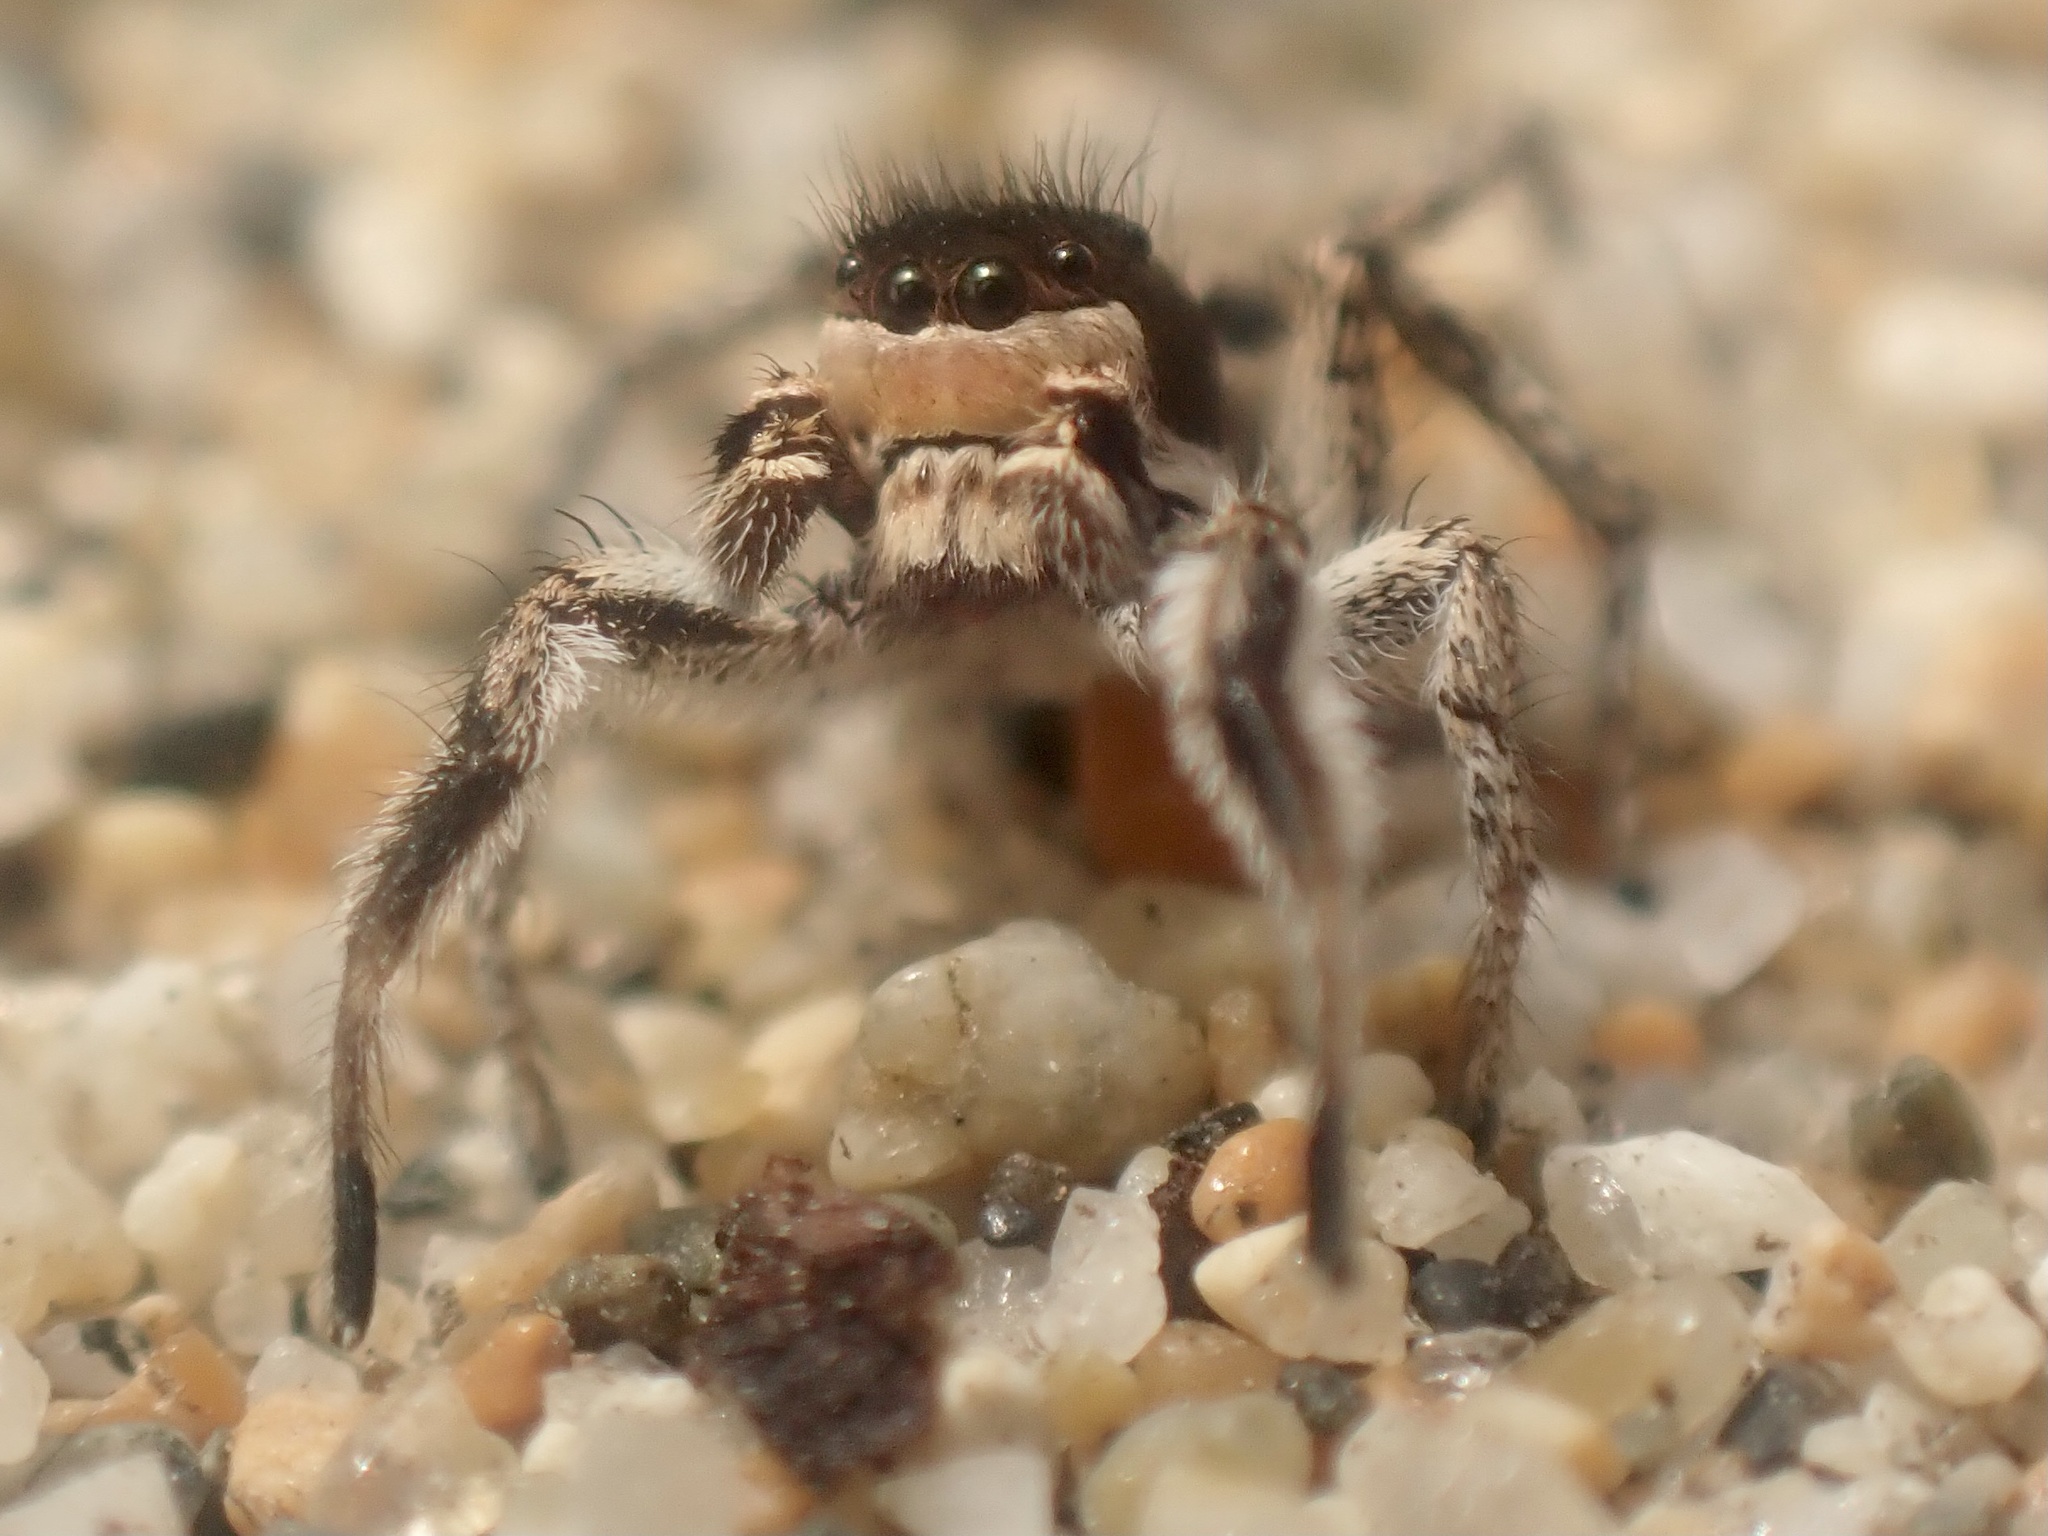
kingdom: Animalia
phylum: Arthropoda
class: Arachnida
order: Araneae
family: Salticidae
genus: Habronattus
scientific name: Habronattus tarsalis
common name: Jumping spider
